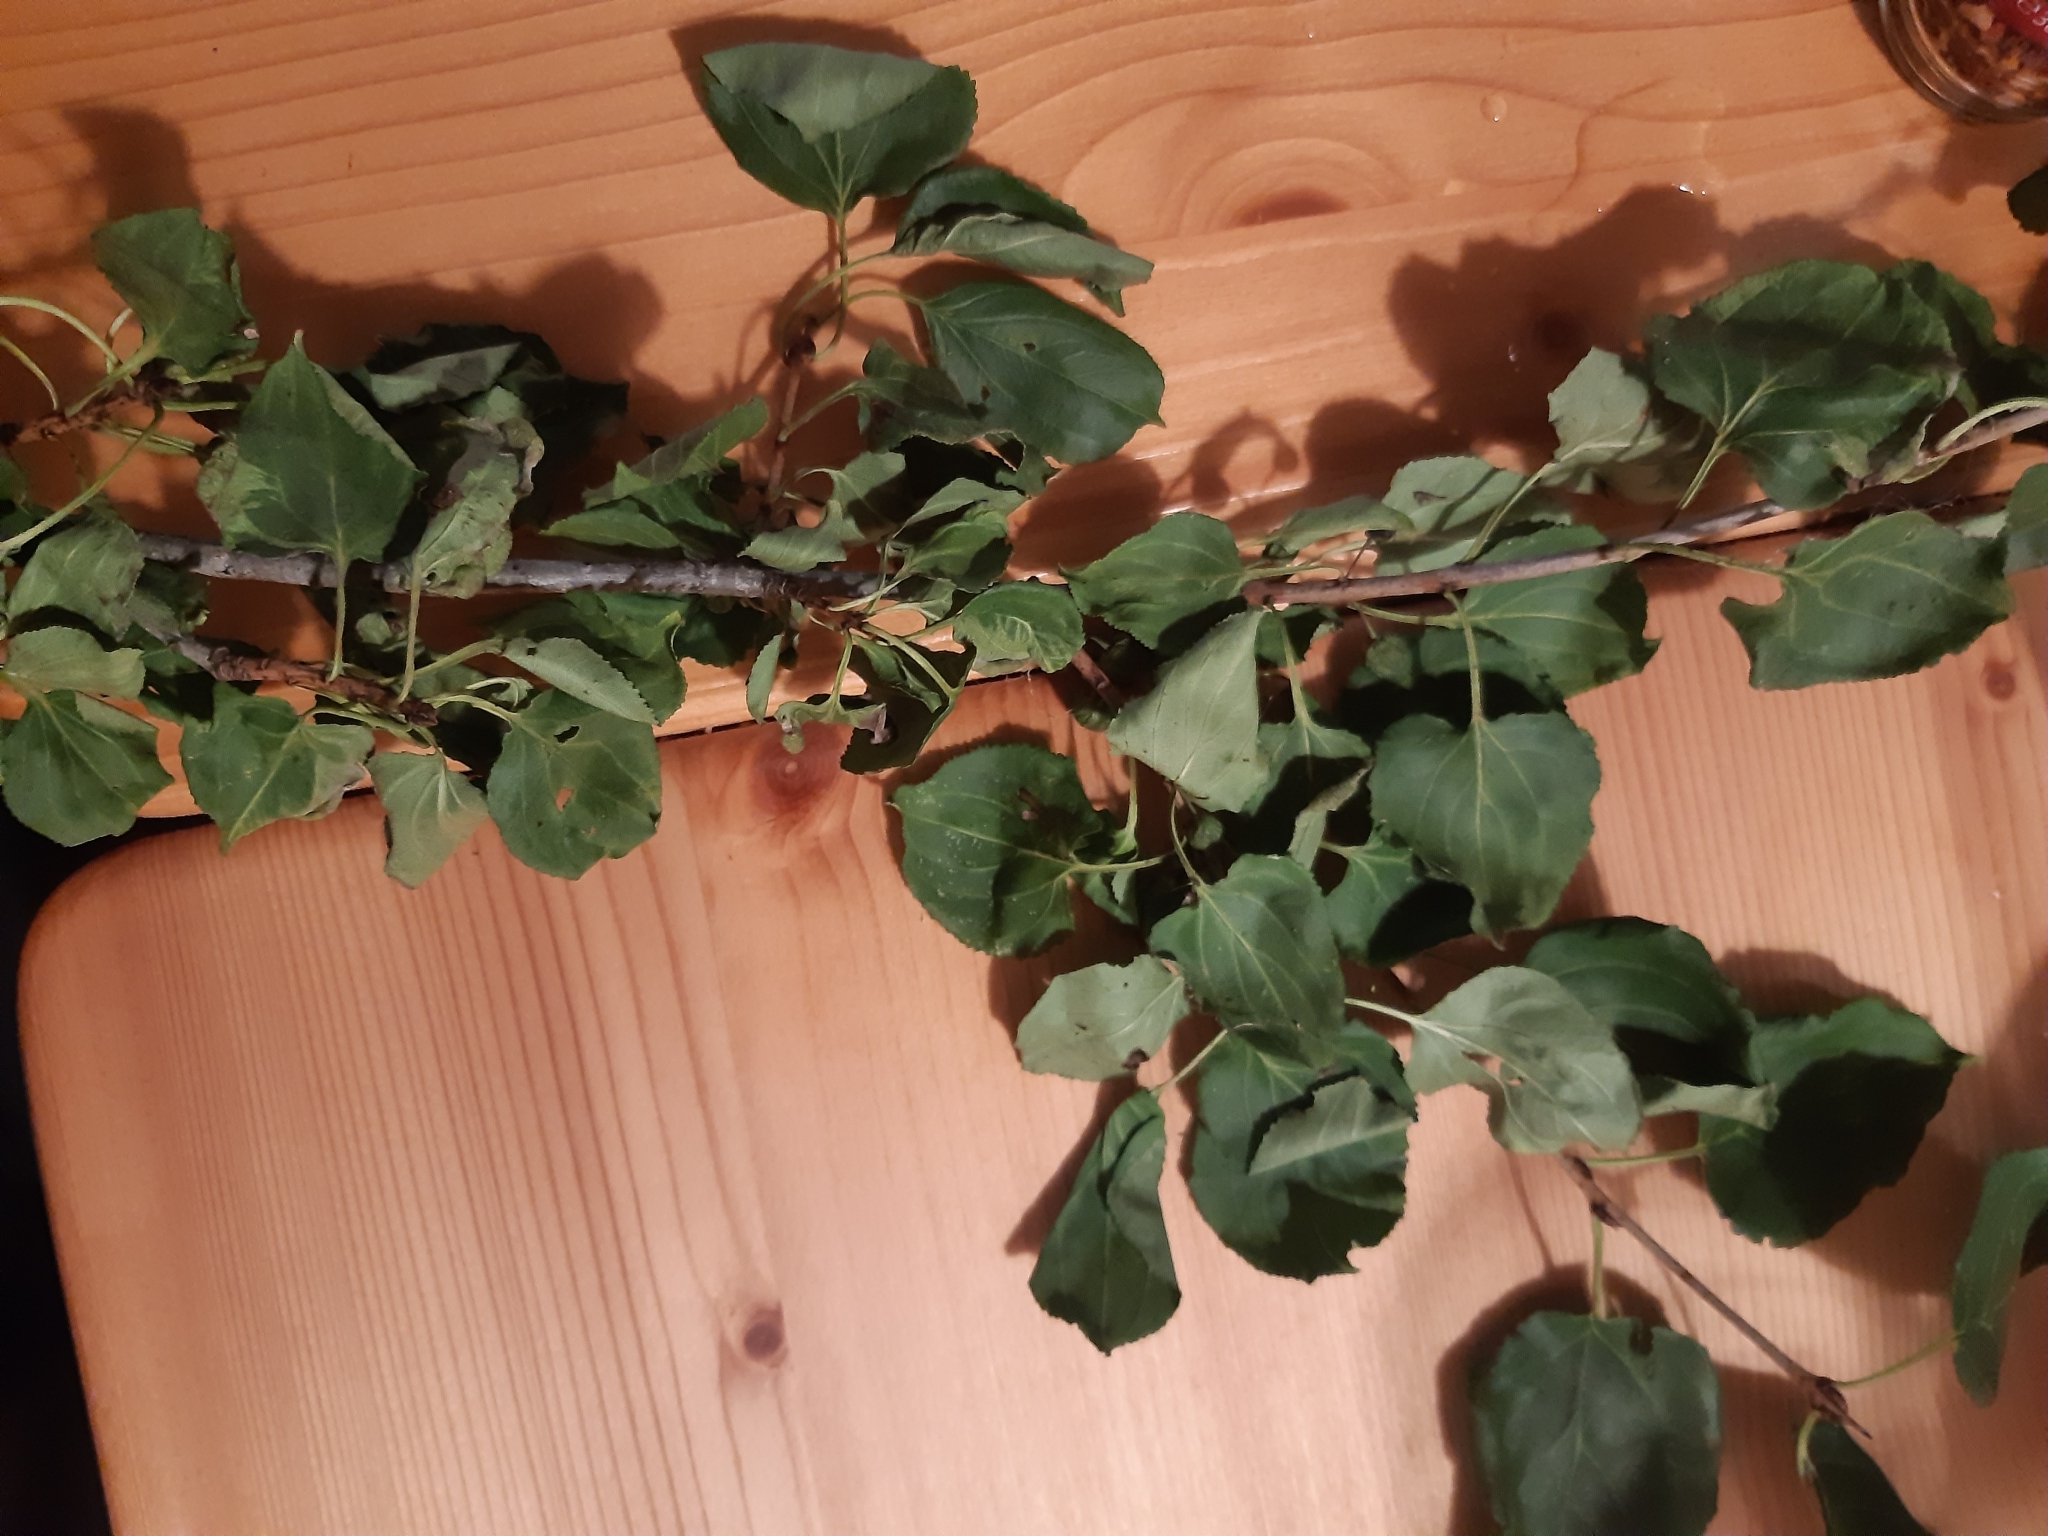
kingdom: Plantae
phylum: Tracheophyta
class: Magnoliopsida
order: Rosales
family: Rhamnaceae
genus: Rhamnus
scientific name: Rhamnus cathartica
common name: Common buckthorn
